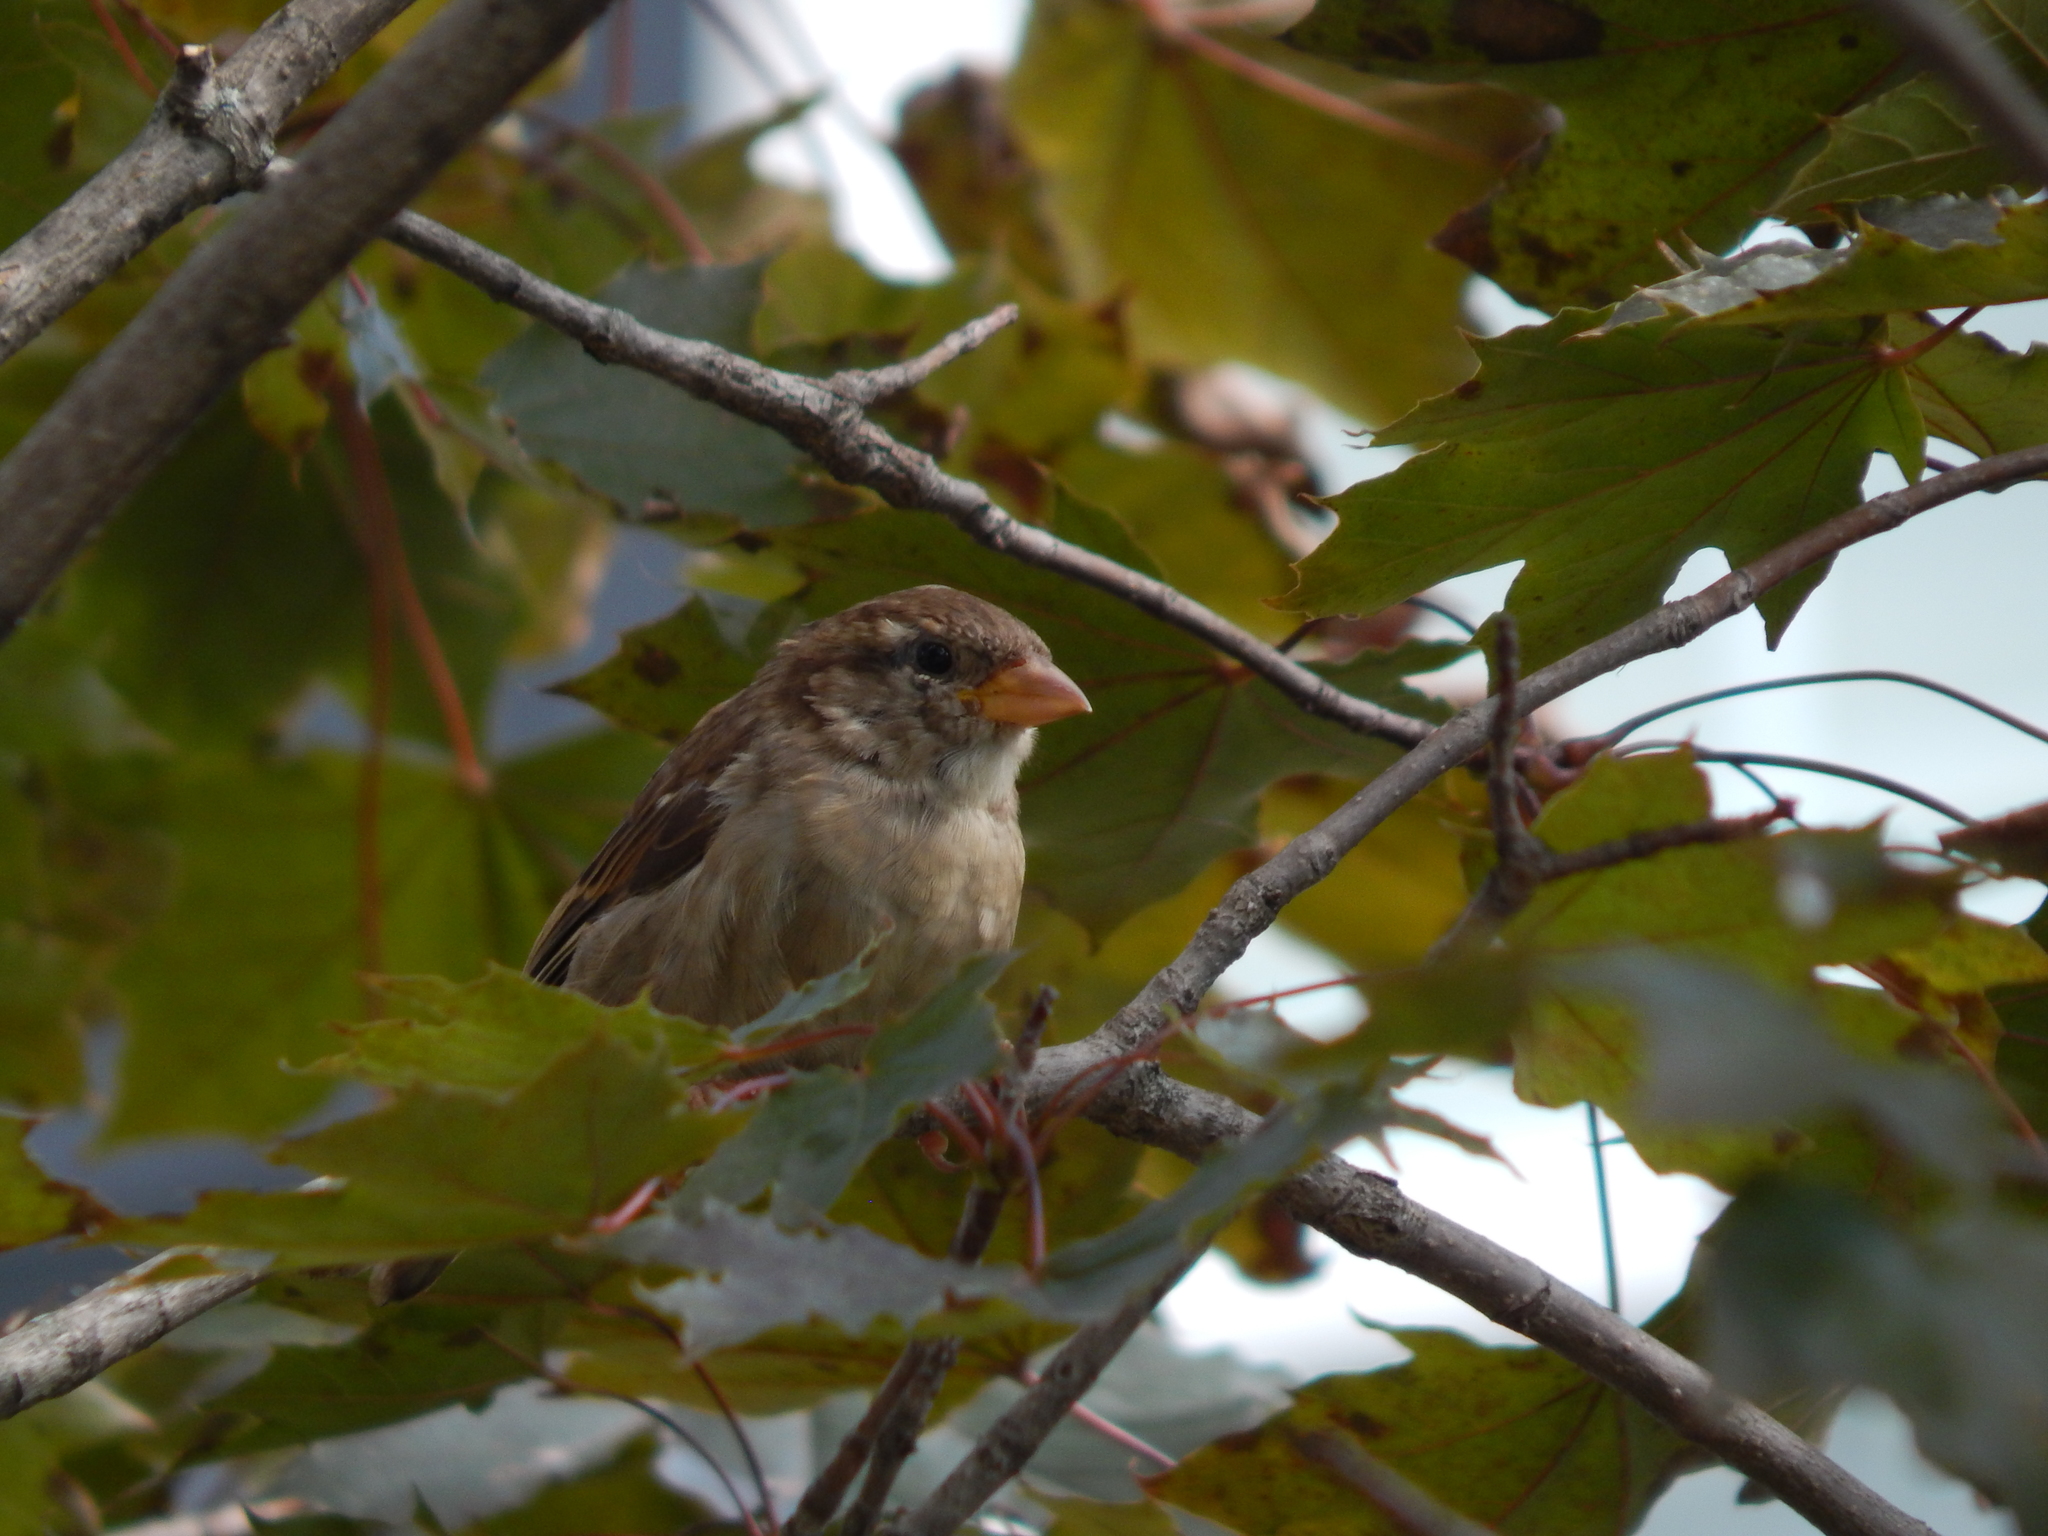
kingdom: Animalia
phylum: Chordata
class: Aves
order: Passeriformes
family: Passeridae
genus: Passer
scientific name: Passer domesticus
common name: House sparrow
